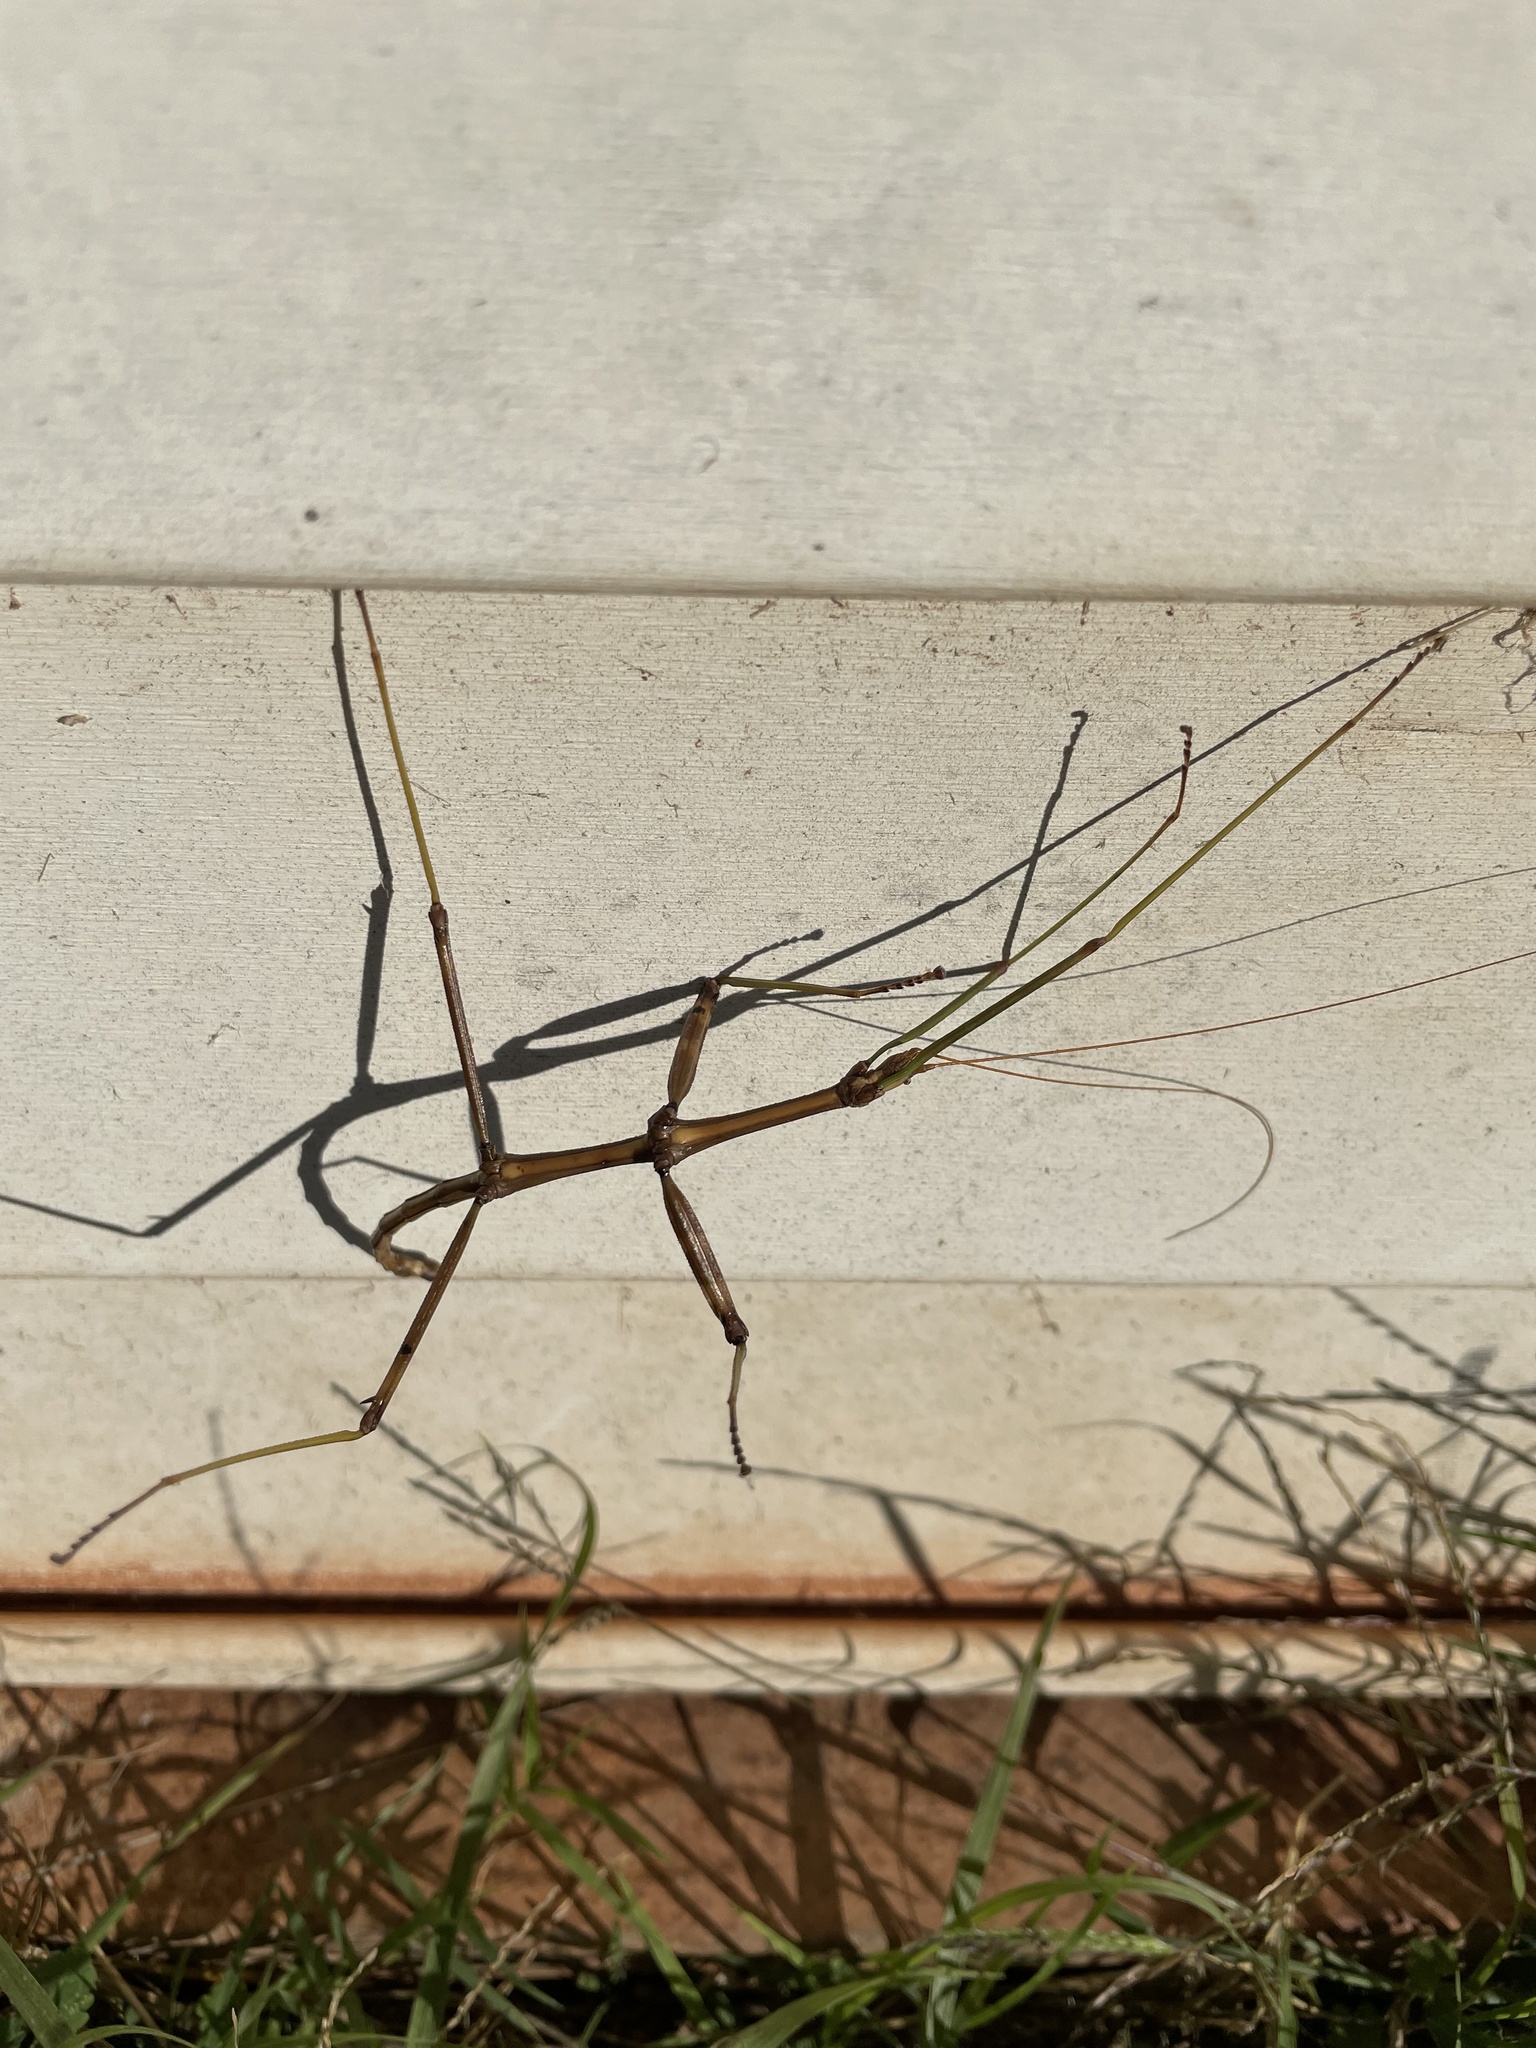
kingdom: Animalia
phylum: Arthropoda
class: Insecta
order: Phasmida
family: Diapheromeridae
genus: Diapheromera
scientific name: Diapheromera femorata
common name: Common american walkingstick
